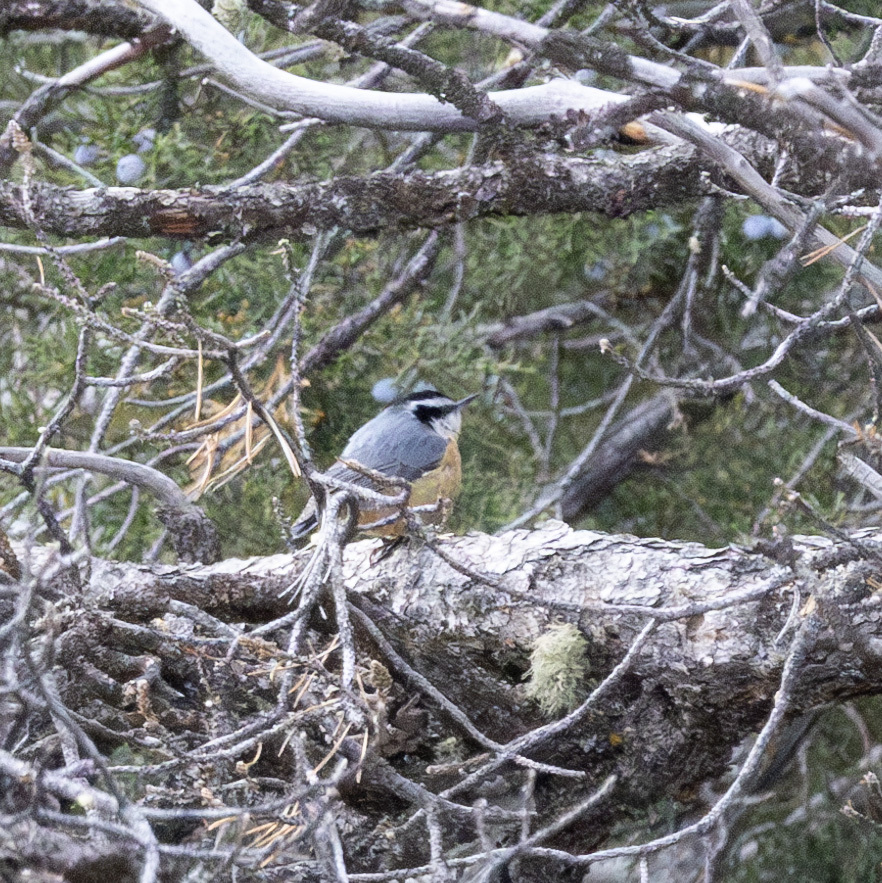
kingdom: Animalia
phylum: Chordata
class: Aves
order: Passeriformes
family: Sittidae
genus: Sitta
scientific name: Sitta canadensis
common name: Red-breasted nuthatch
